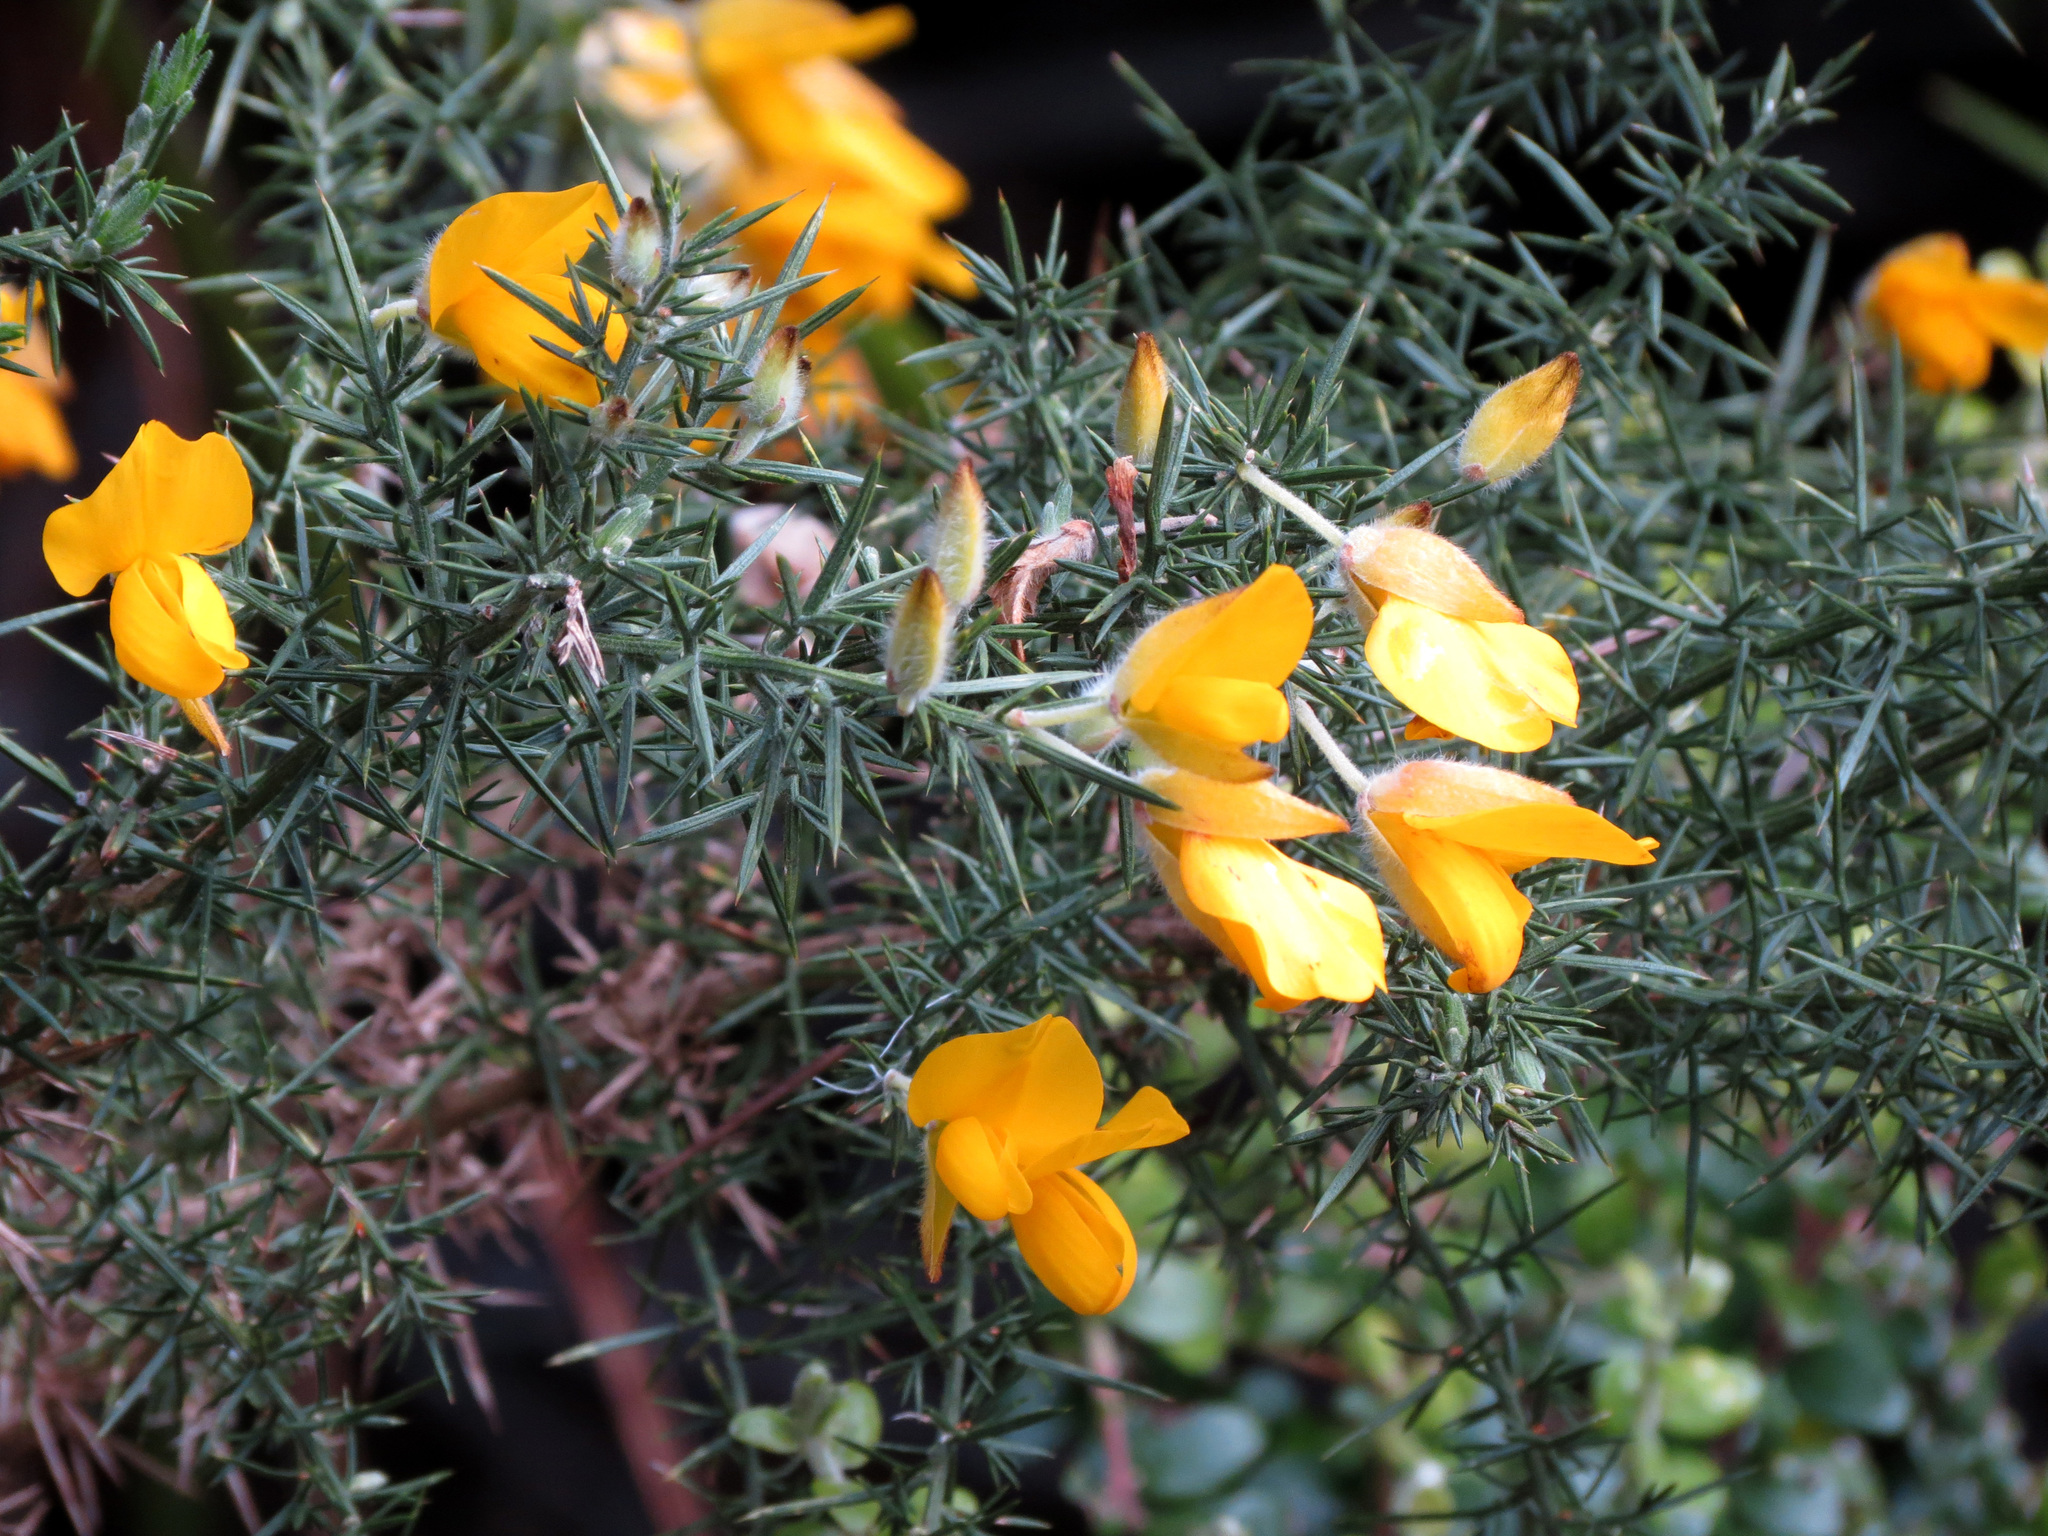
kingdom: Plantae
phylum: Tracheophyta
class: Magnoliopsida
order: Fabales
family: Fabaceae
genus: Ulex
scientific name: Ulex europaeus
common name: Common gorse
